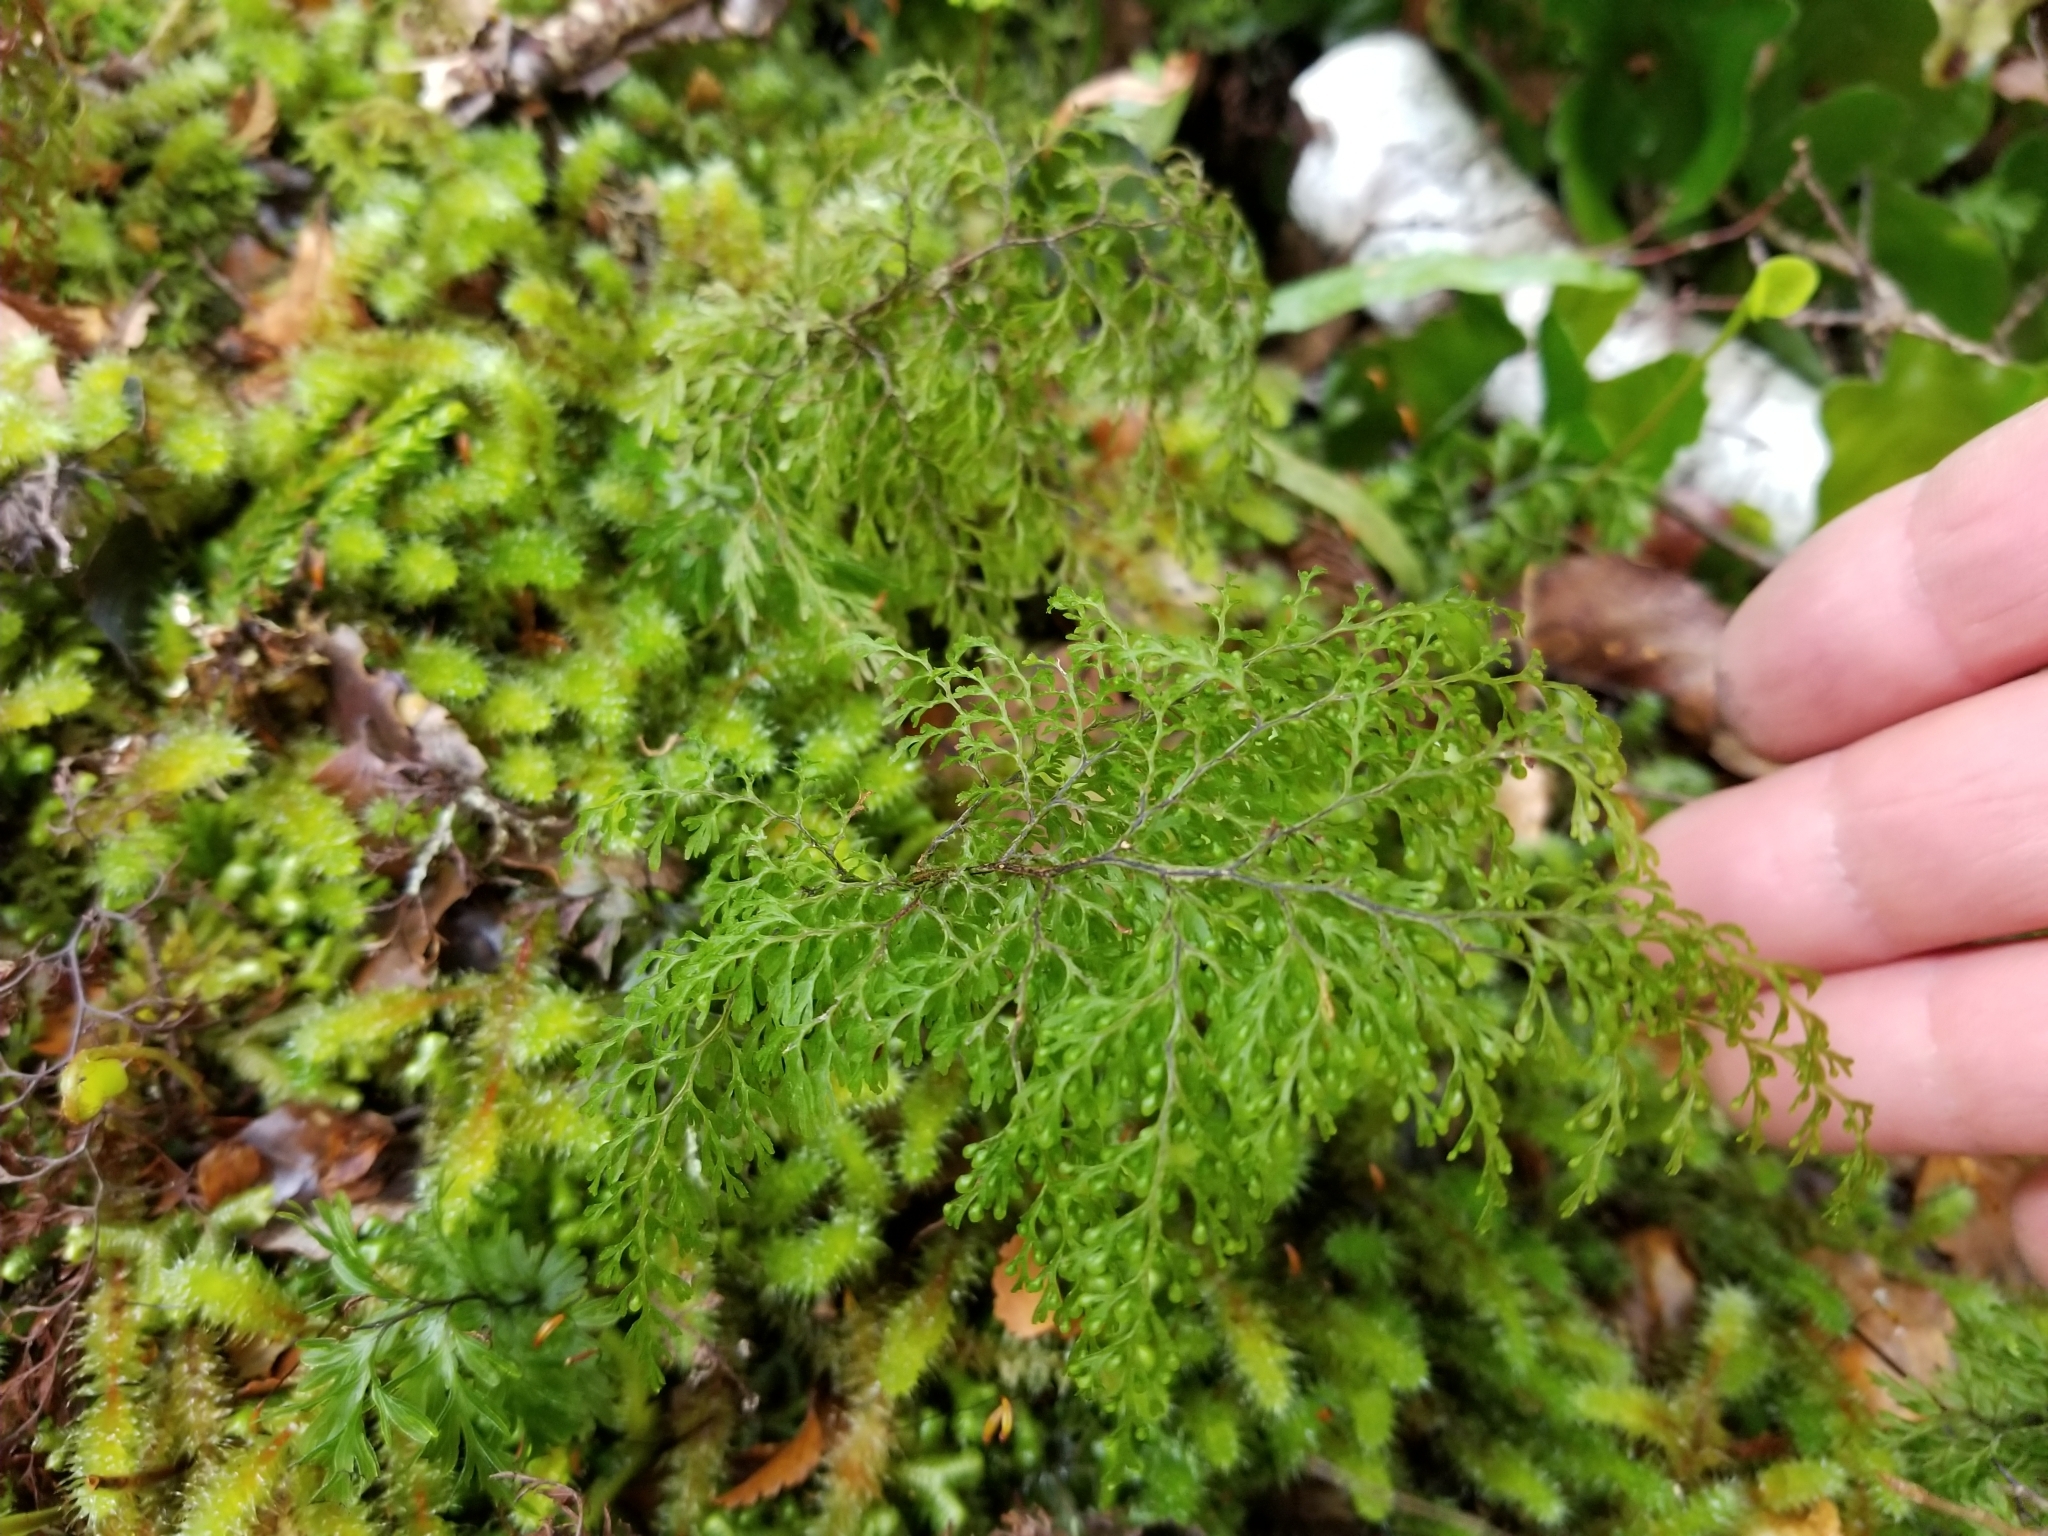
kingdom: Plantae
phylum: Tracheophyta
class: Polypodiopsida
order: Hymenophyllales
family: Hymenophyllaceae
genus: Hymenophyllum
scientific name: Hymenophyllum bivalve
